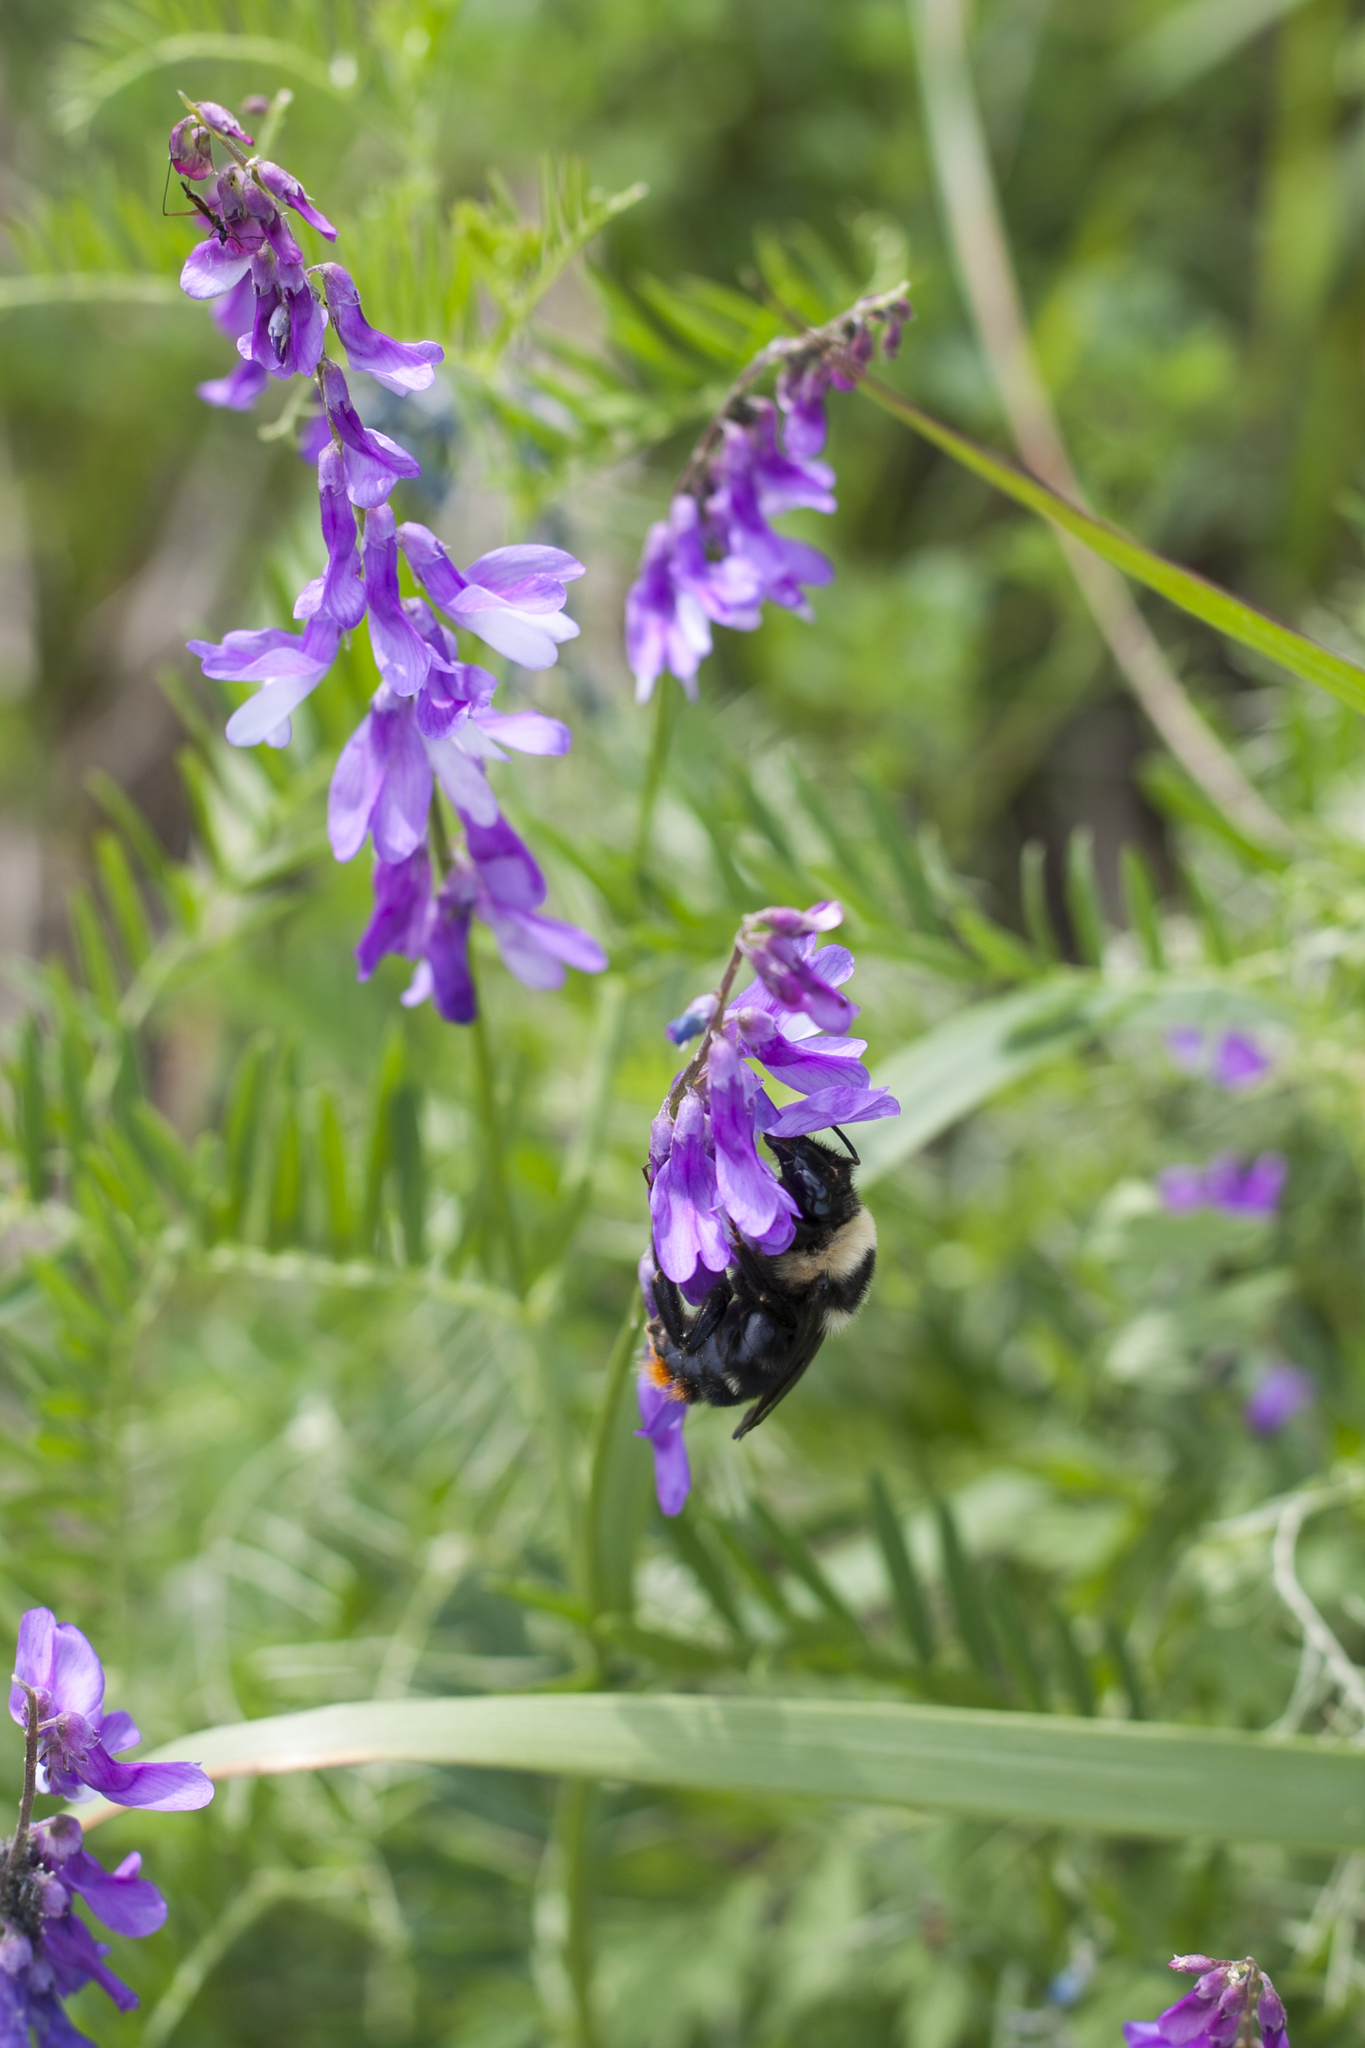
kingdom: Plantae
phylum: Tracheophyta
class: Magnoliopsida
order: Fabales
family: Fabaceae
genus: Vicia
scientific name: Vicia tenuifolia
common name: Fine-leaved vetch
